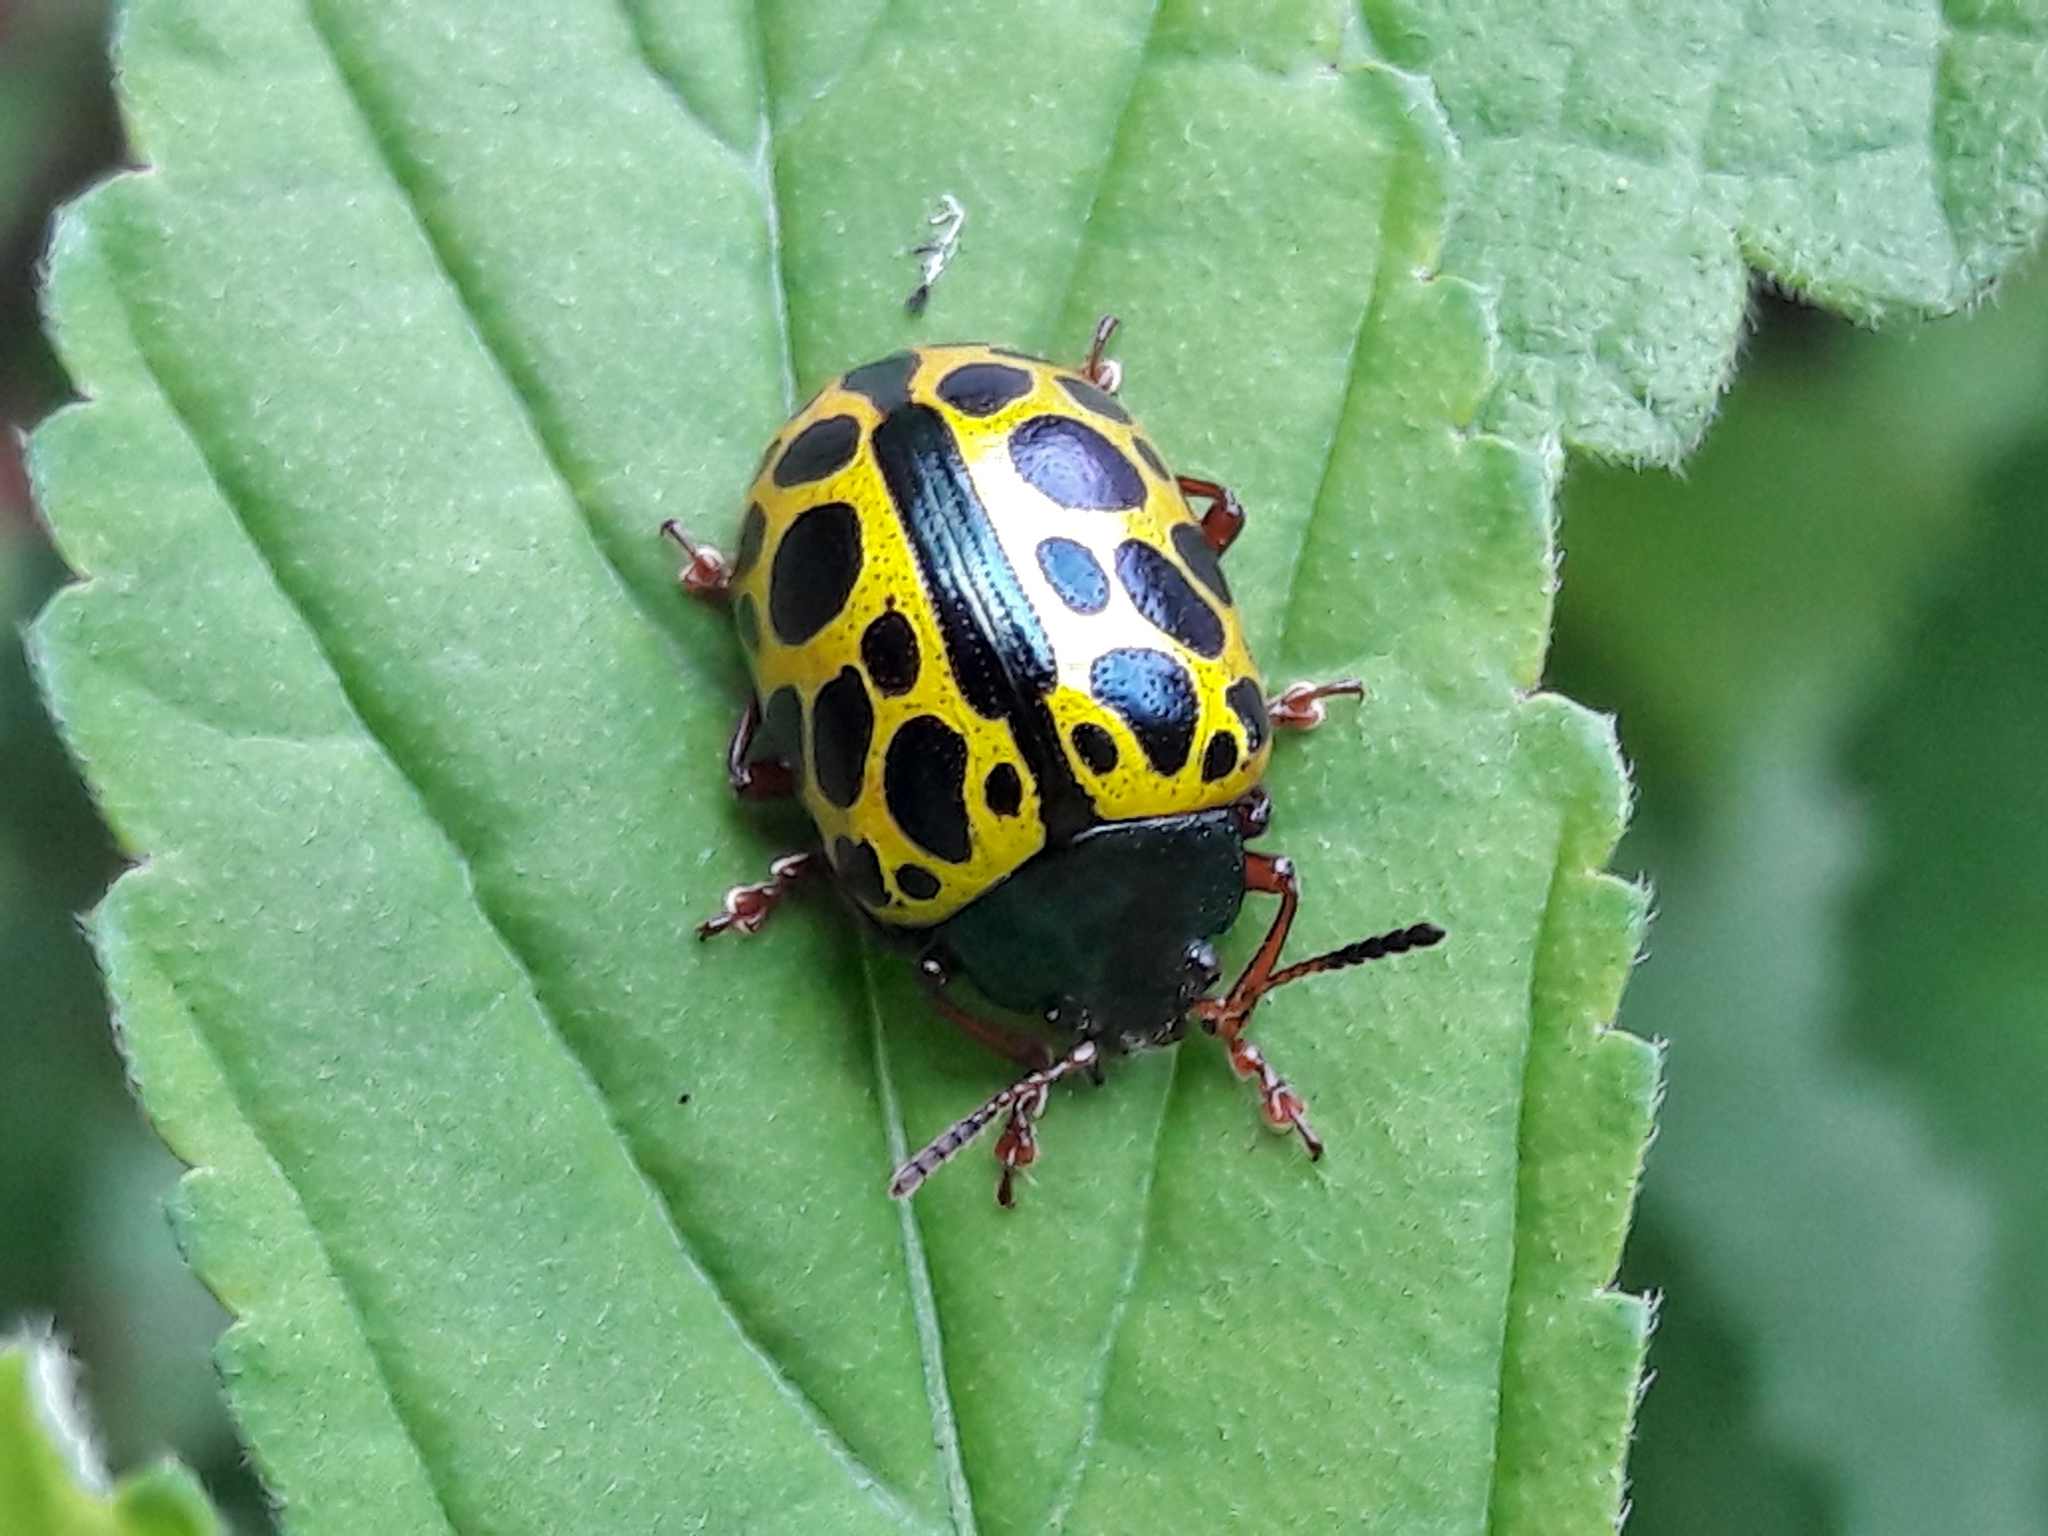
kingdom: Animalia
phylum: Arthropoda
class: Insecta
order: Coleoptera
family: Chrysomelidae
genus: Calligrapha
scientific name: Calligrapha polyspila
